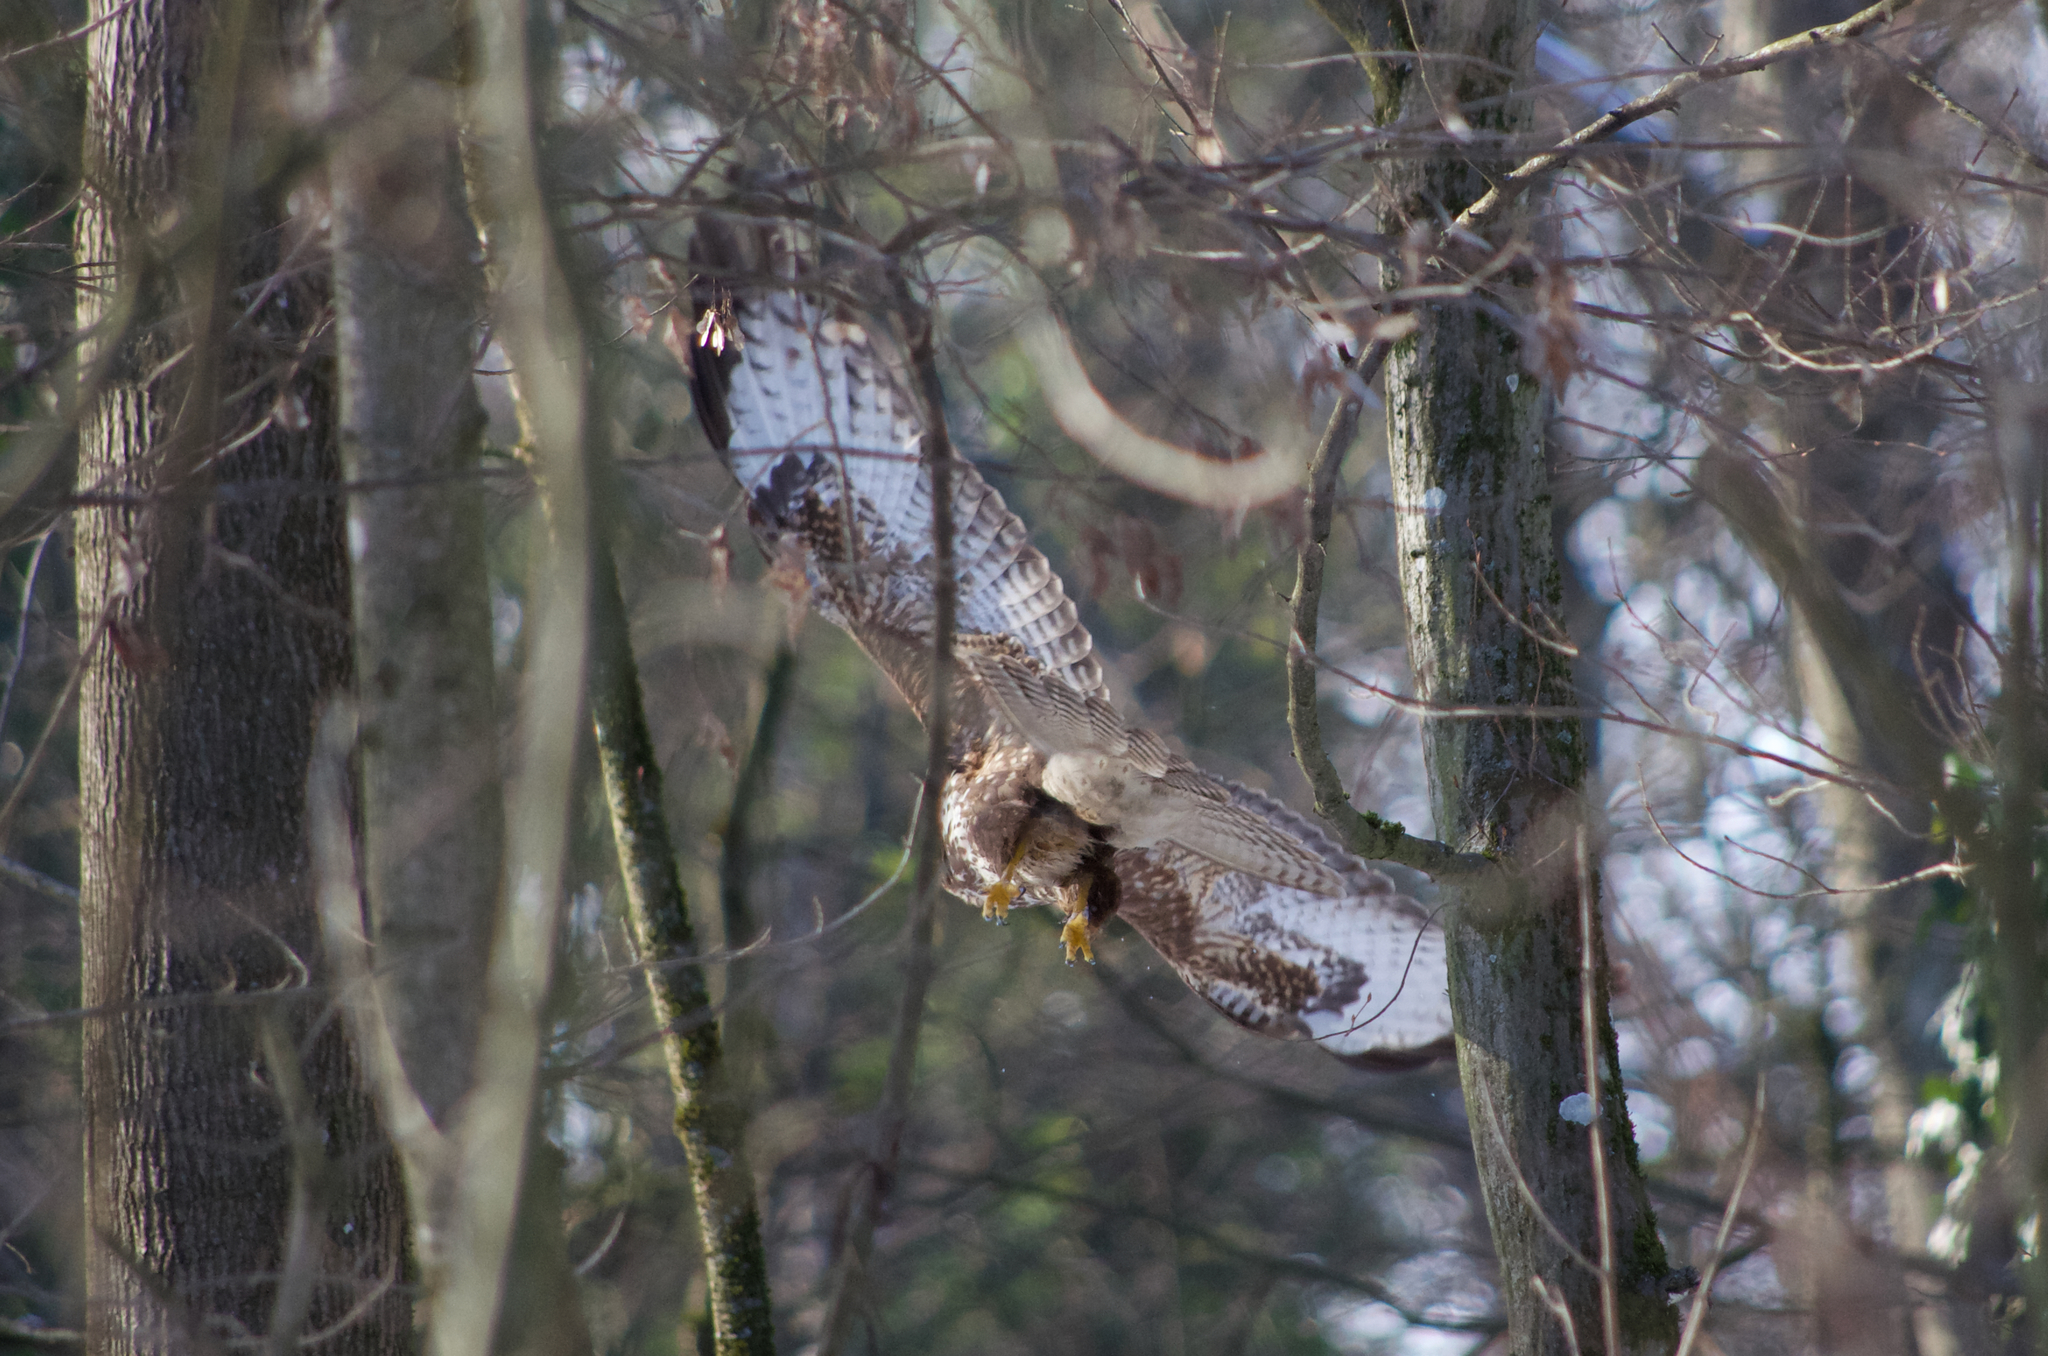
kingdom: Animalia
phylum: Chordata
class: Aves
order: Accipitriformes
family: Accipitridae
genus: Buteo
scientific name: Buteo buteo
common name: Common buzzard
